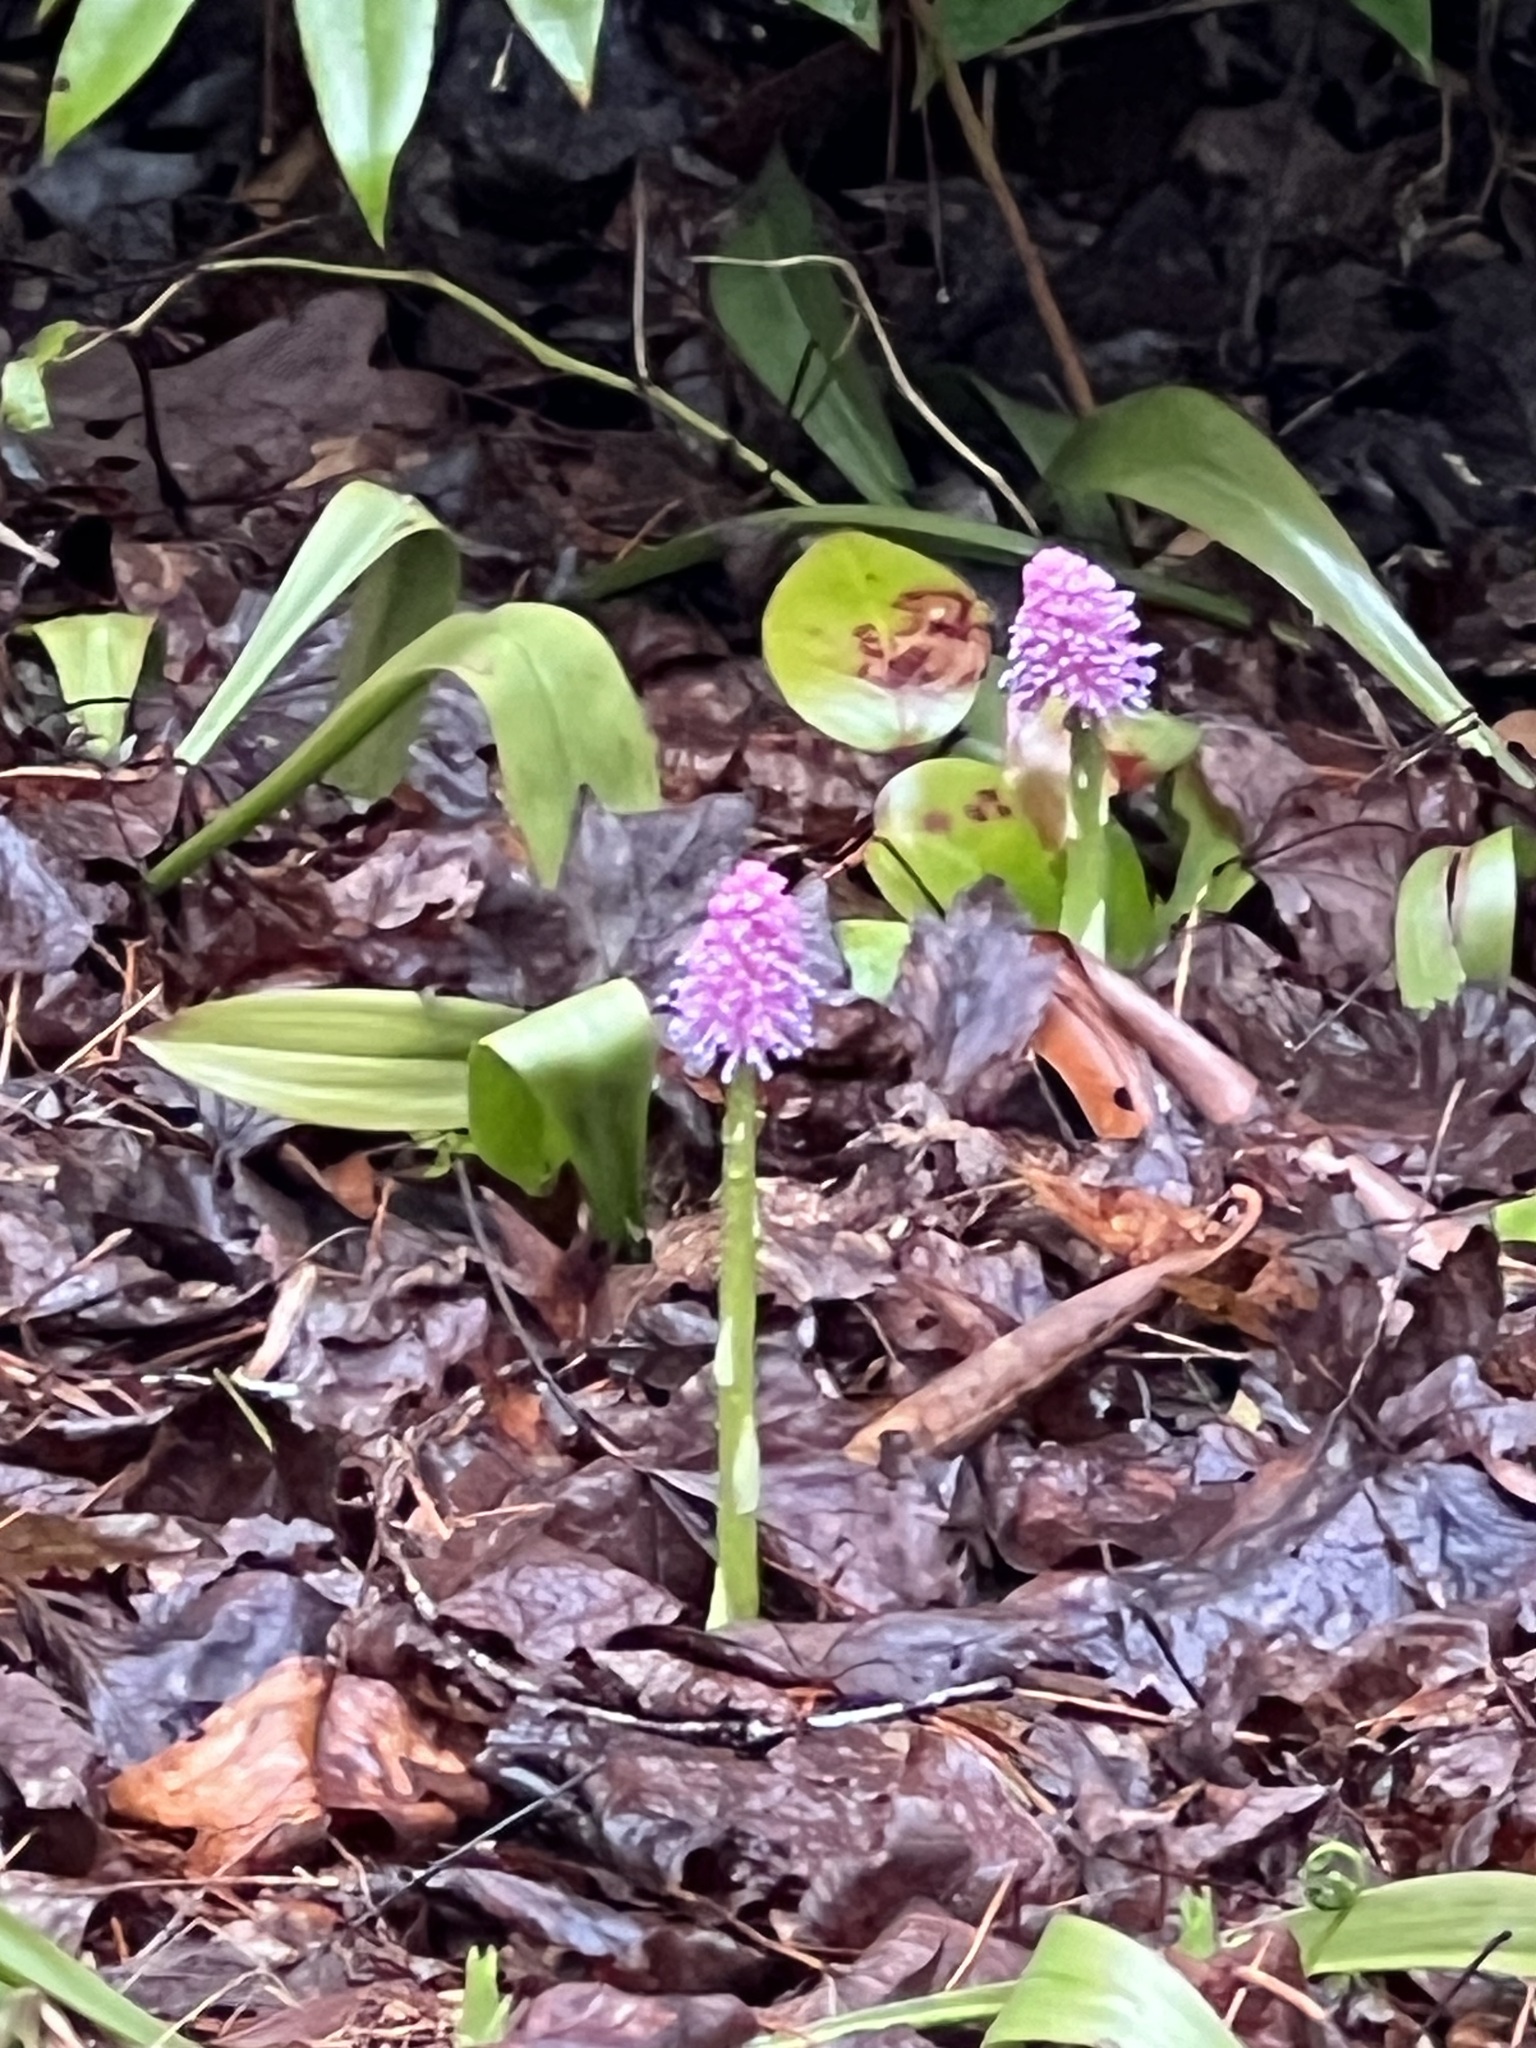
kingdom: Plantae
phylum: Tracheophyta
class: Liliopsida
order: Liliales
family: Melanthiaceae
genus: Helonias
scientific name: Helonias bullata
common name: Swamp-pink
